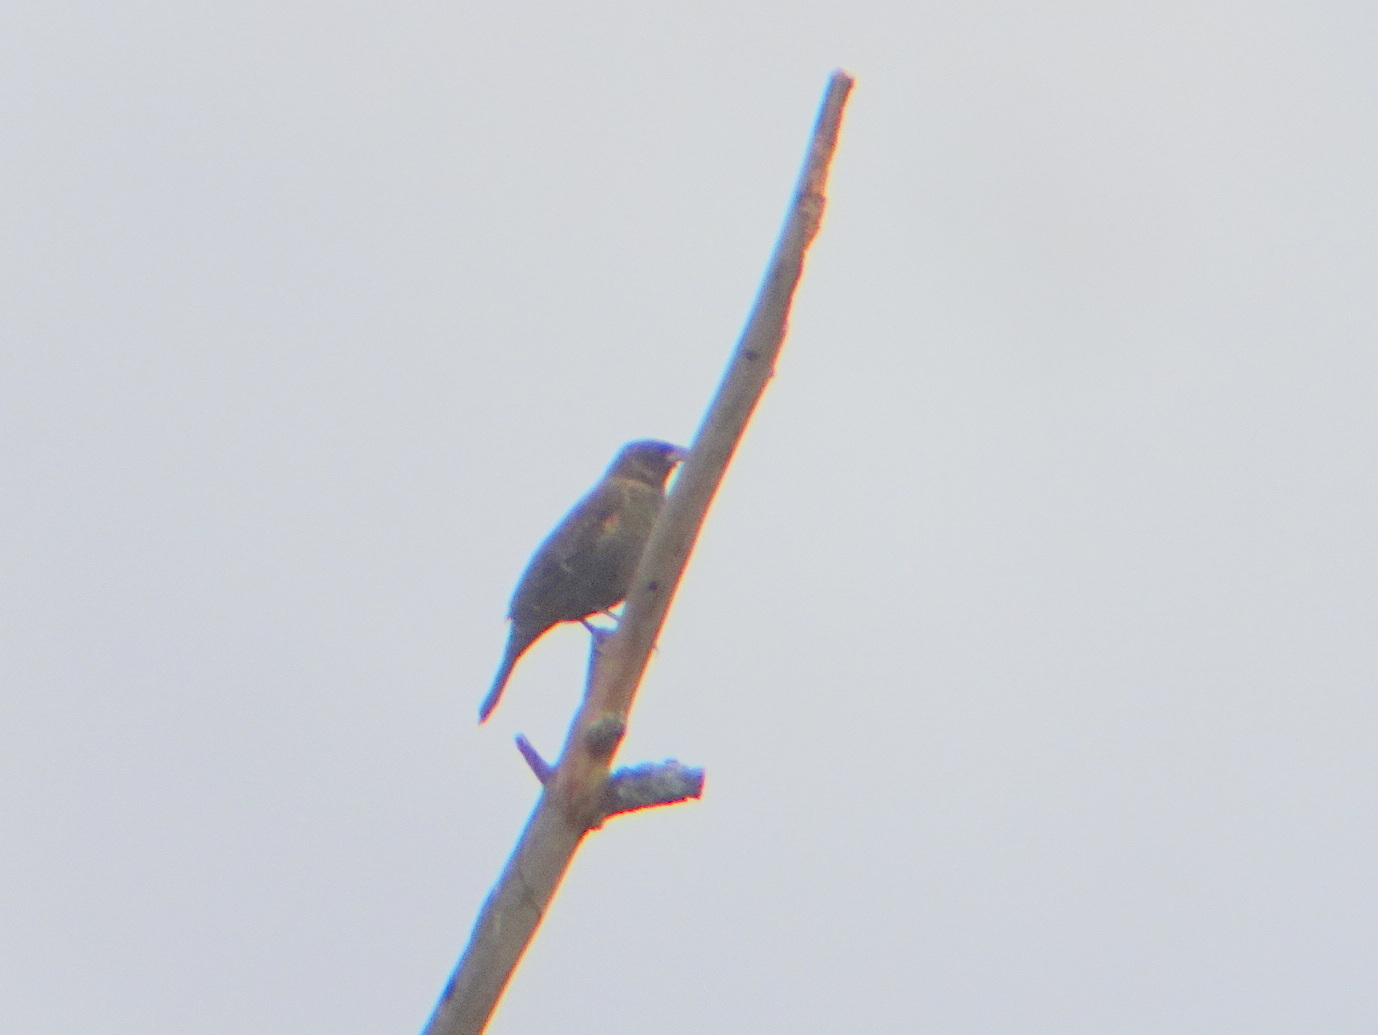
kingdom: Animalia
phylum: Chordata
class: Aves
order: Passeriformes
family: Icteridae
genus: Agelaius
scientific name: Agelaius phoeniceus
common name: Red-winged blackbird
